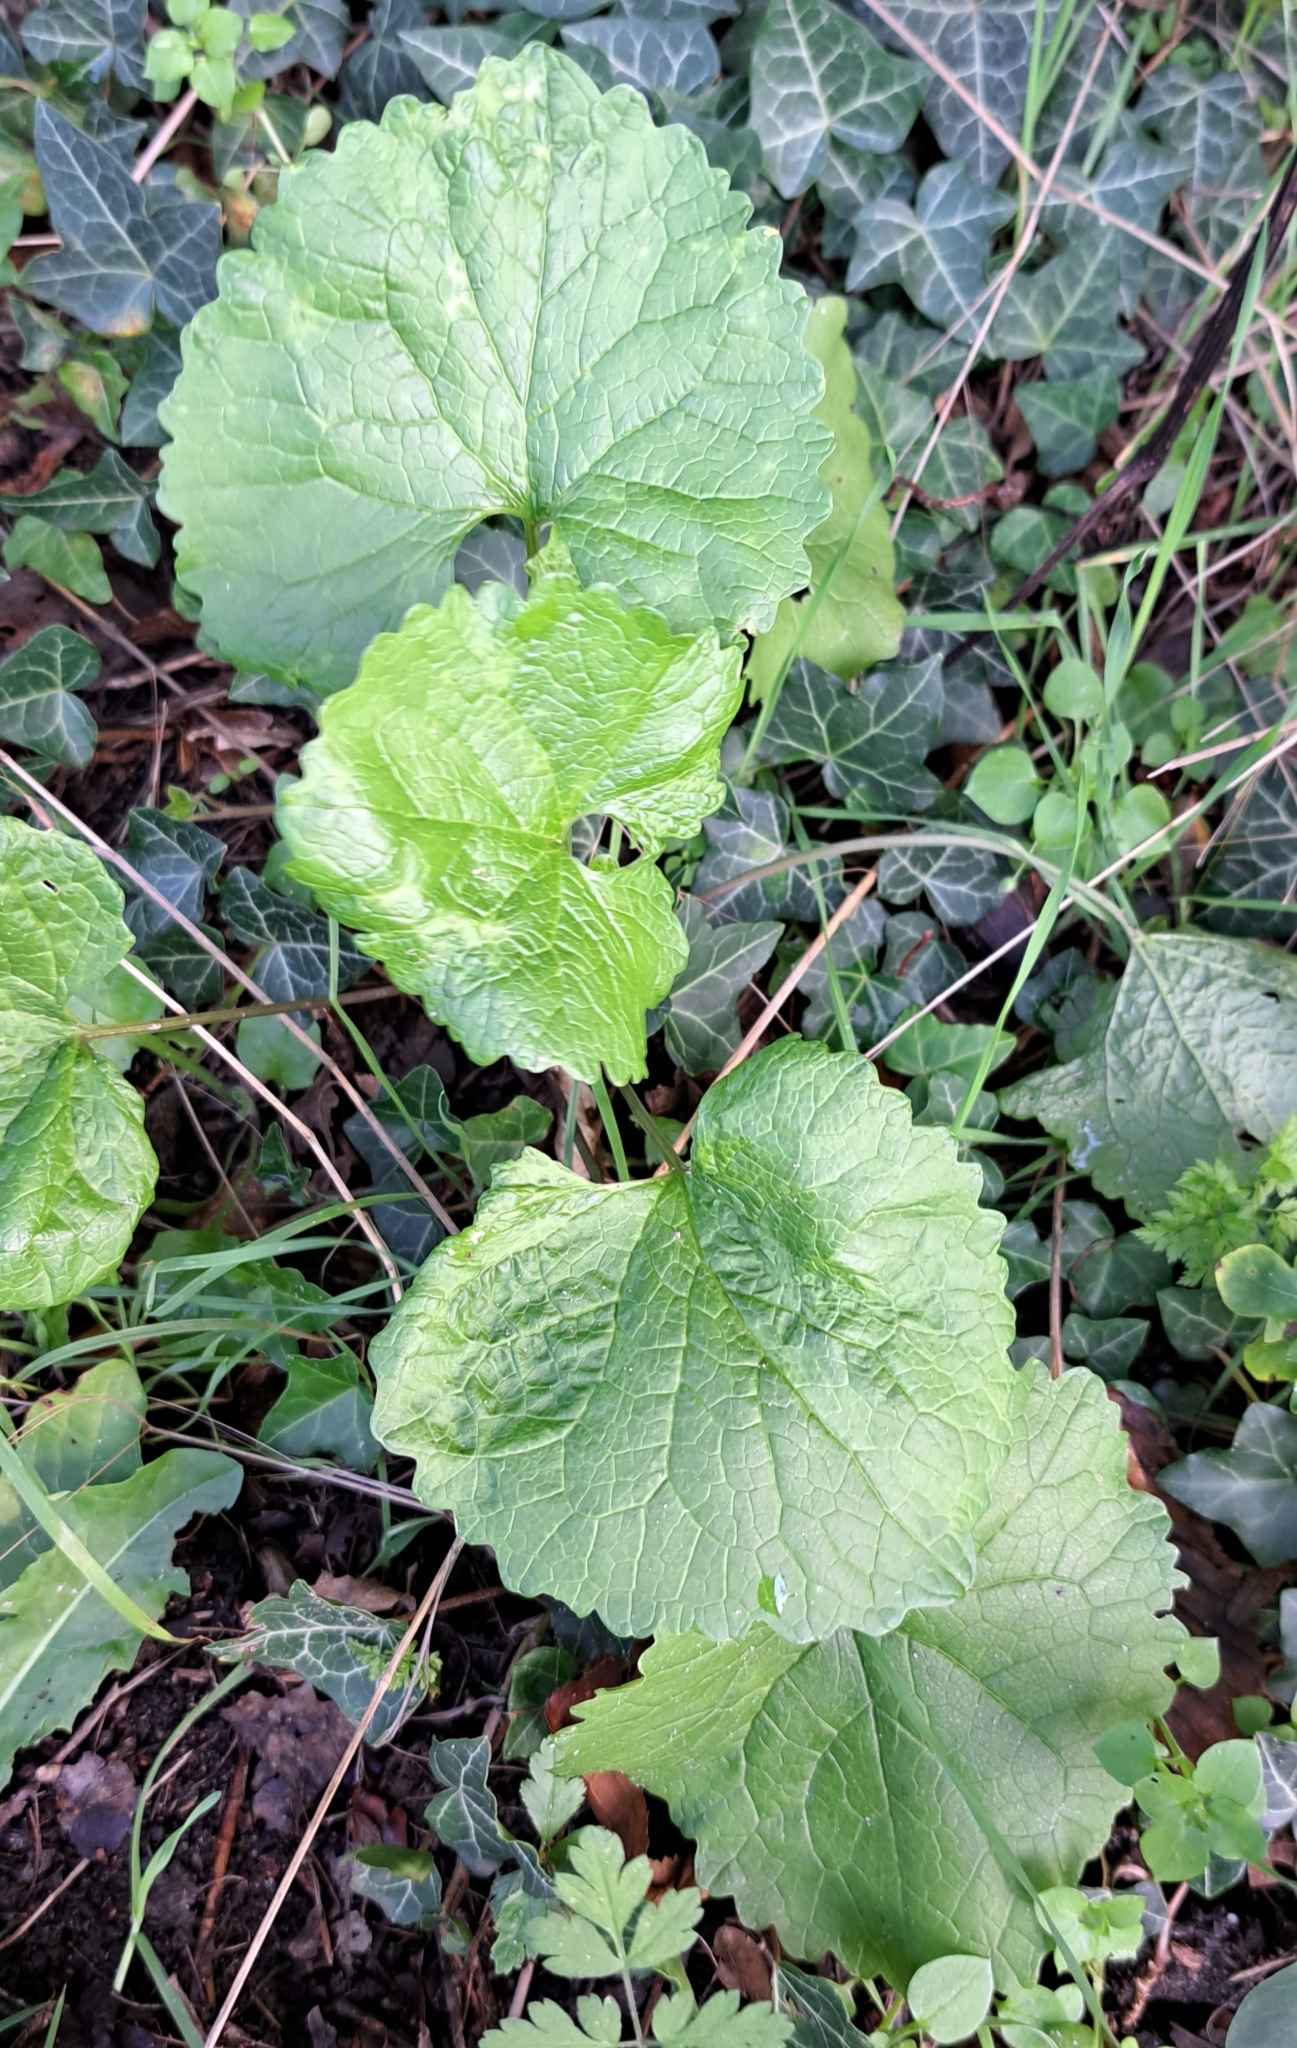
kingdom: Plantae
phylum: Tracheophyta
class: Magnoliopsida
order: Brassicales
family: Brassicaceae
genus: Alliaria
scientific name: Alliaria petiolata
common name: Garlic mustard
